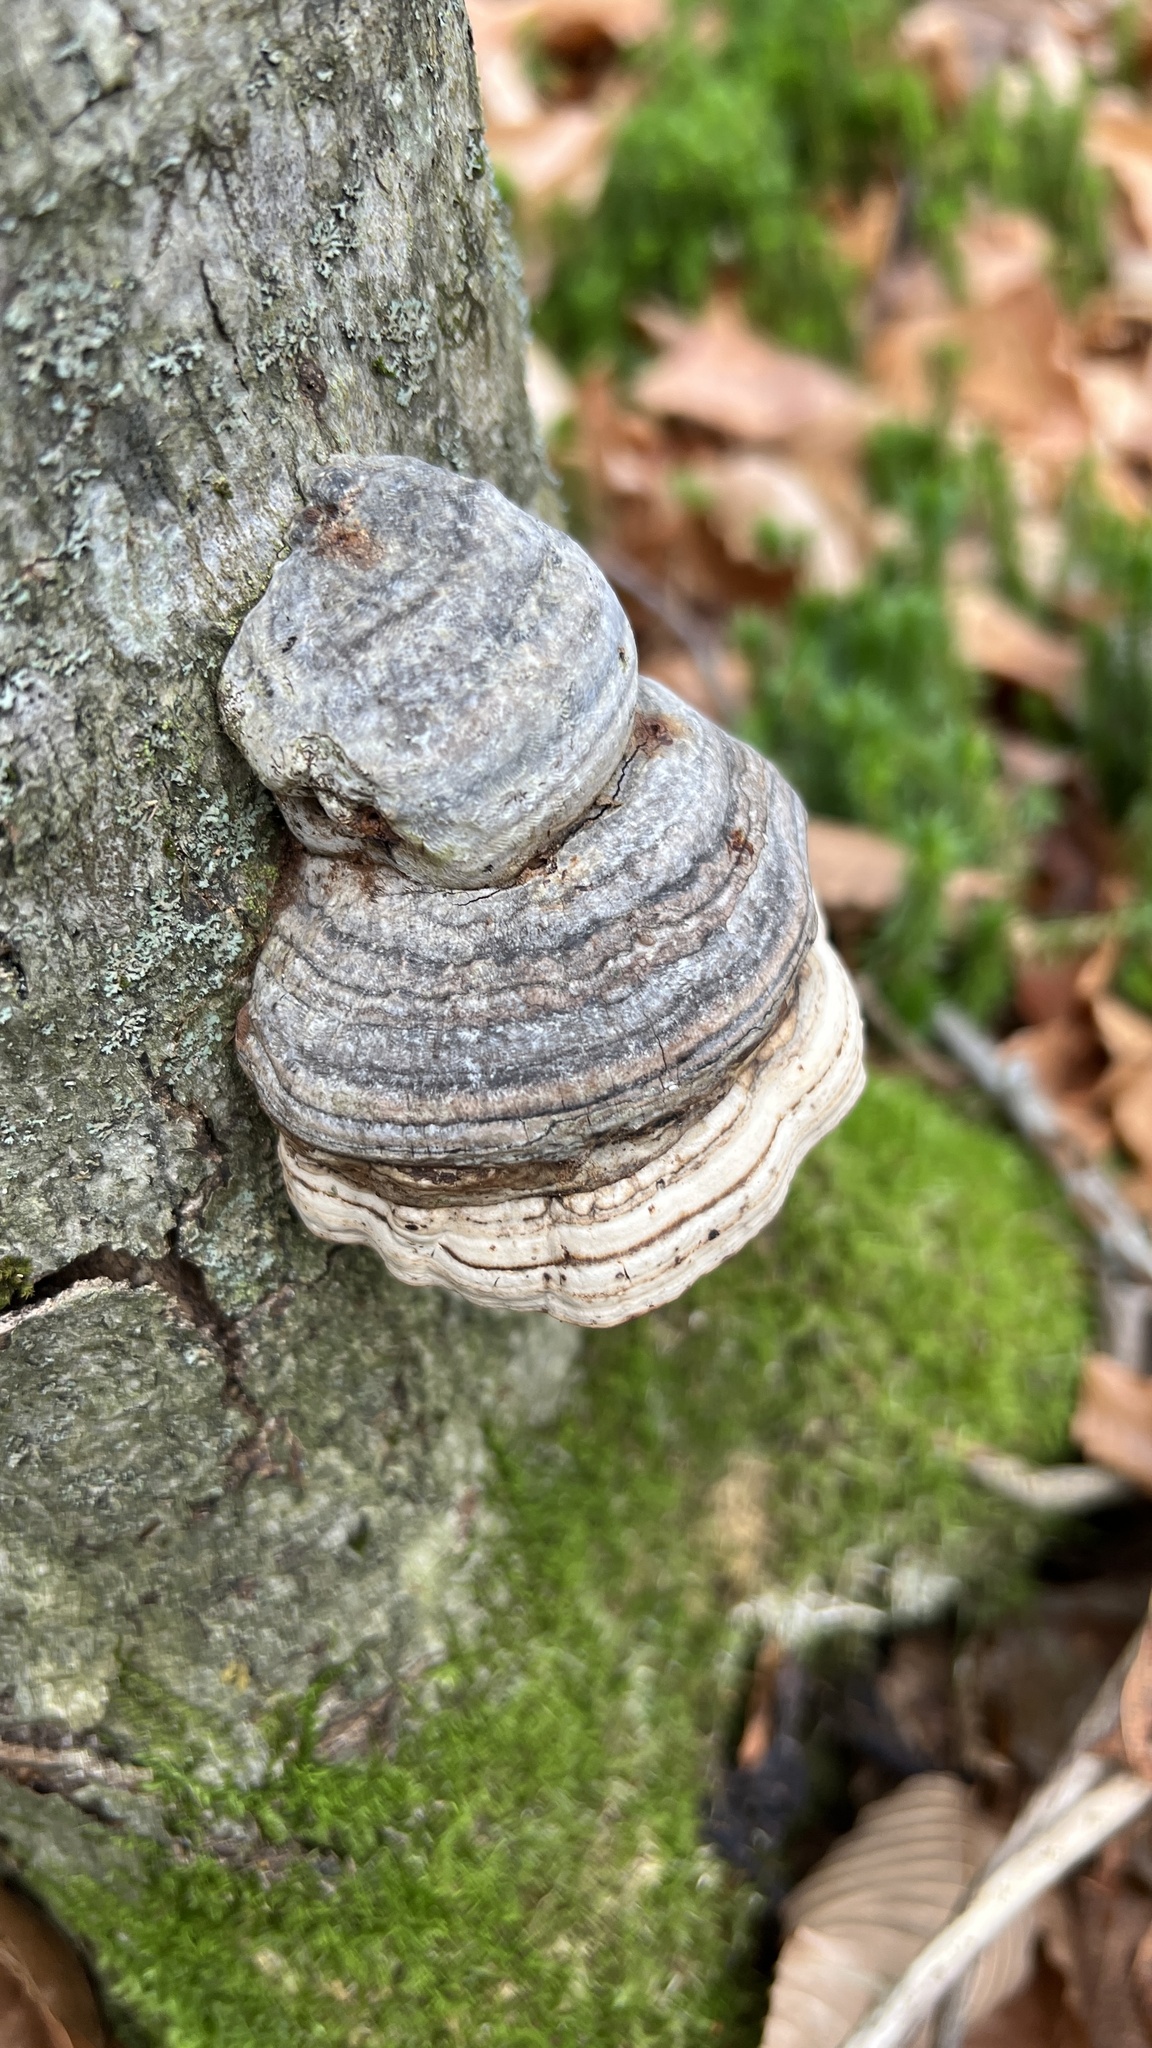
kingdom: Fungi
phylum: Basidiomycota
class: Agaricomycetes
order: Polyporales
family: Polyporaceae
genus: Fomes
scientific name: Fomes fomentarius
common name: Hoof fungus
